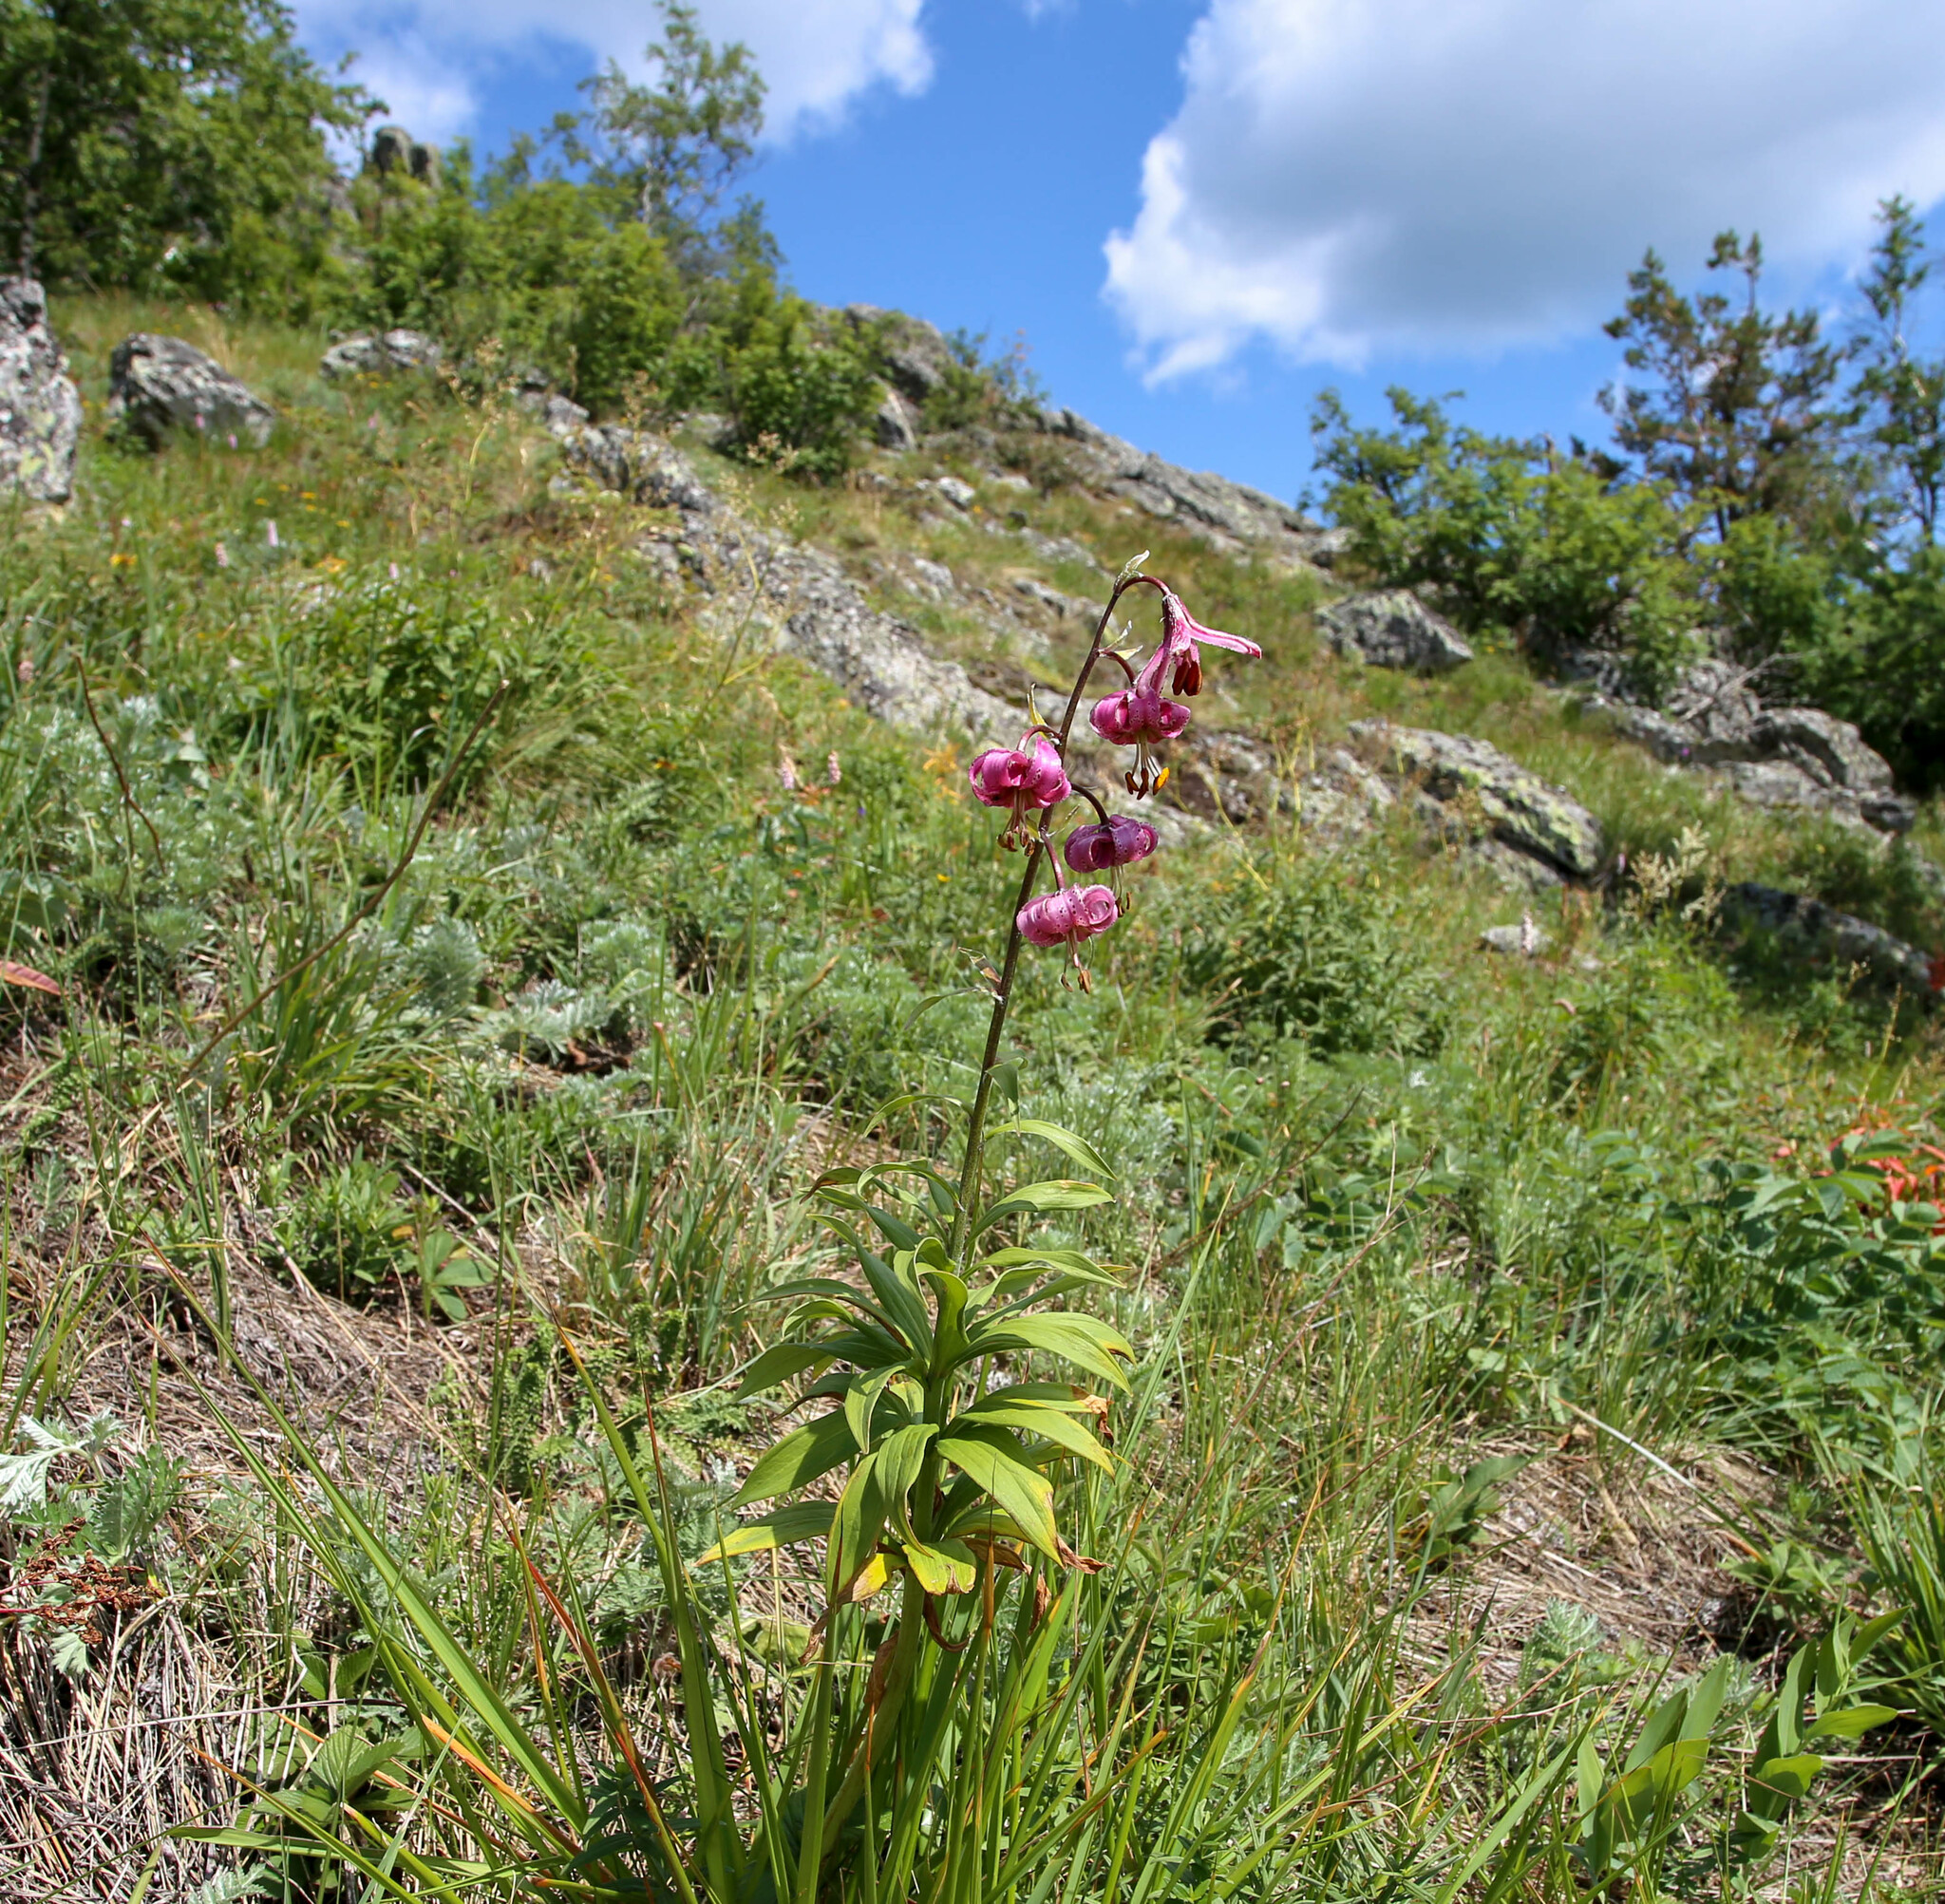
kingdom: Plantae
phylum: Tracheophyta
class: Liliopsida
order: Liliales
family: Liliaceae
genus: Lilium
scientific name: Lilium martagon
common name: Martagon lily
